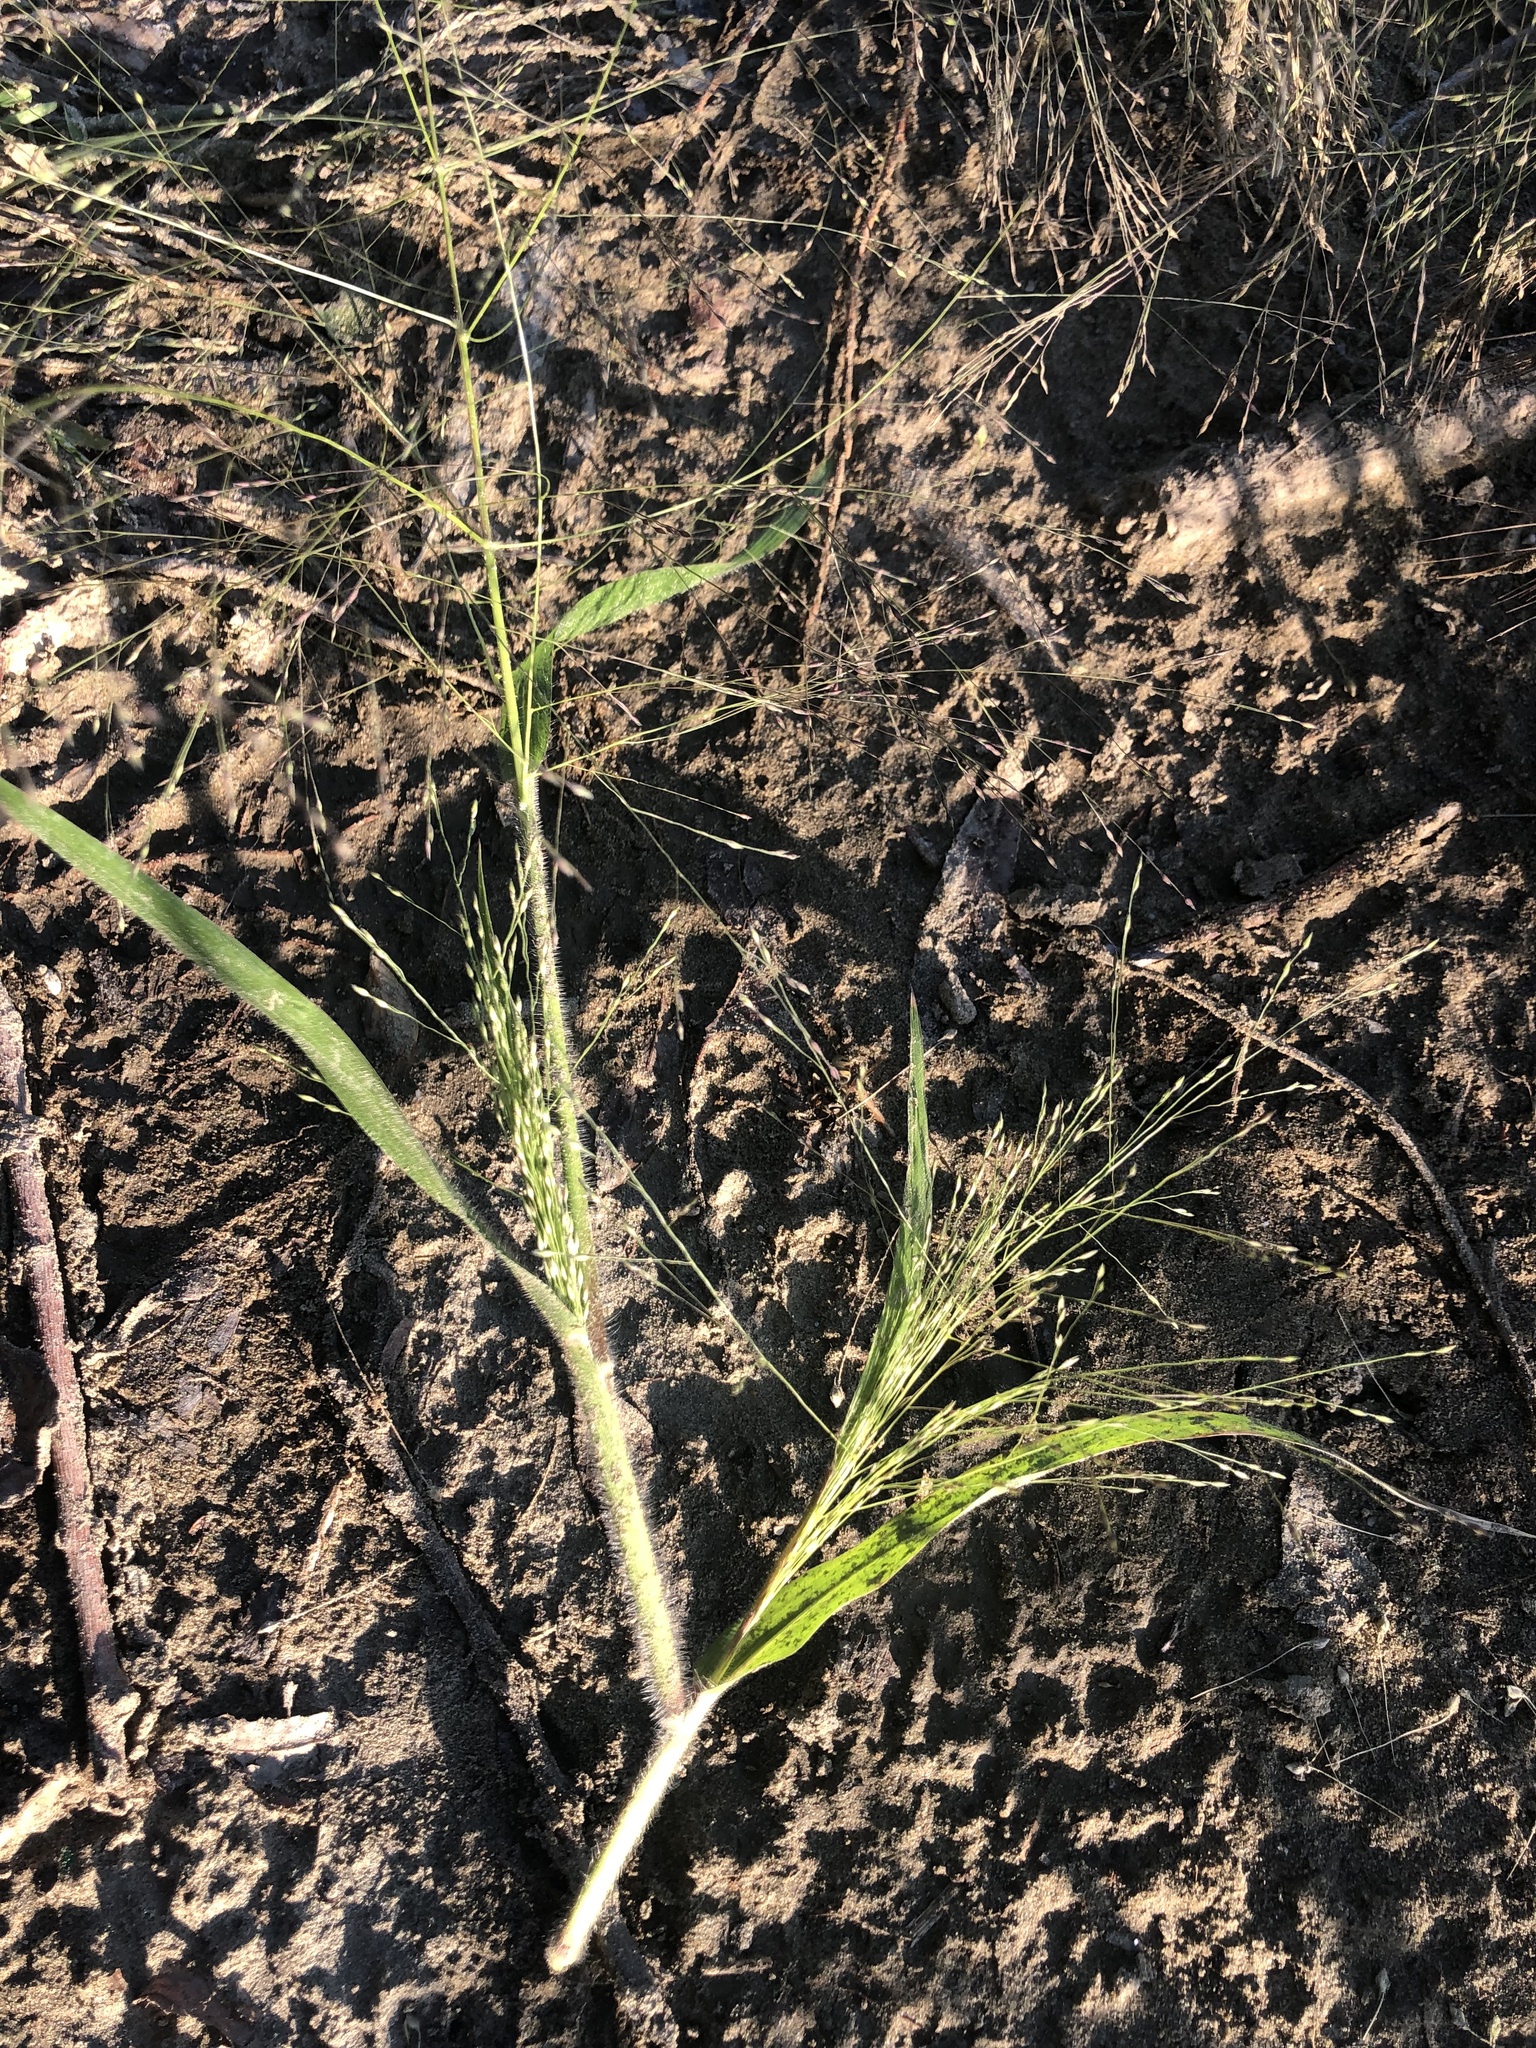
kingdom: Plantae
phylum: Tracheophyta
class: Liliopsida
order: Poales
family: Poaceae
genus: Panicum
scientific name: Panicum capillare
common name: Witch-grass
